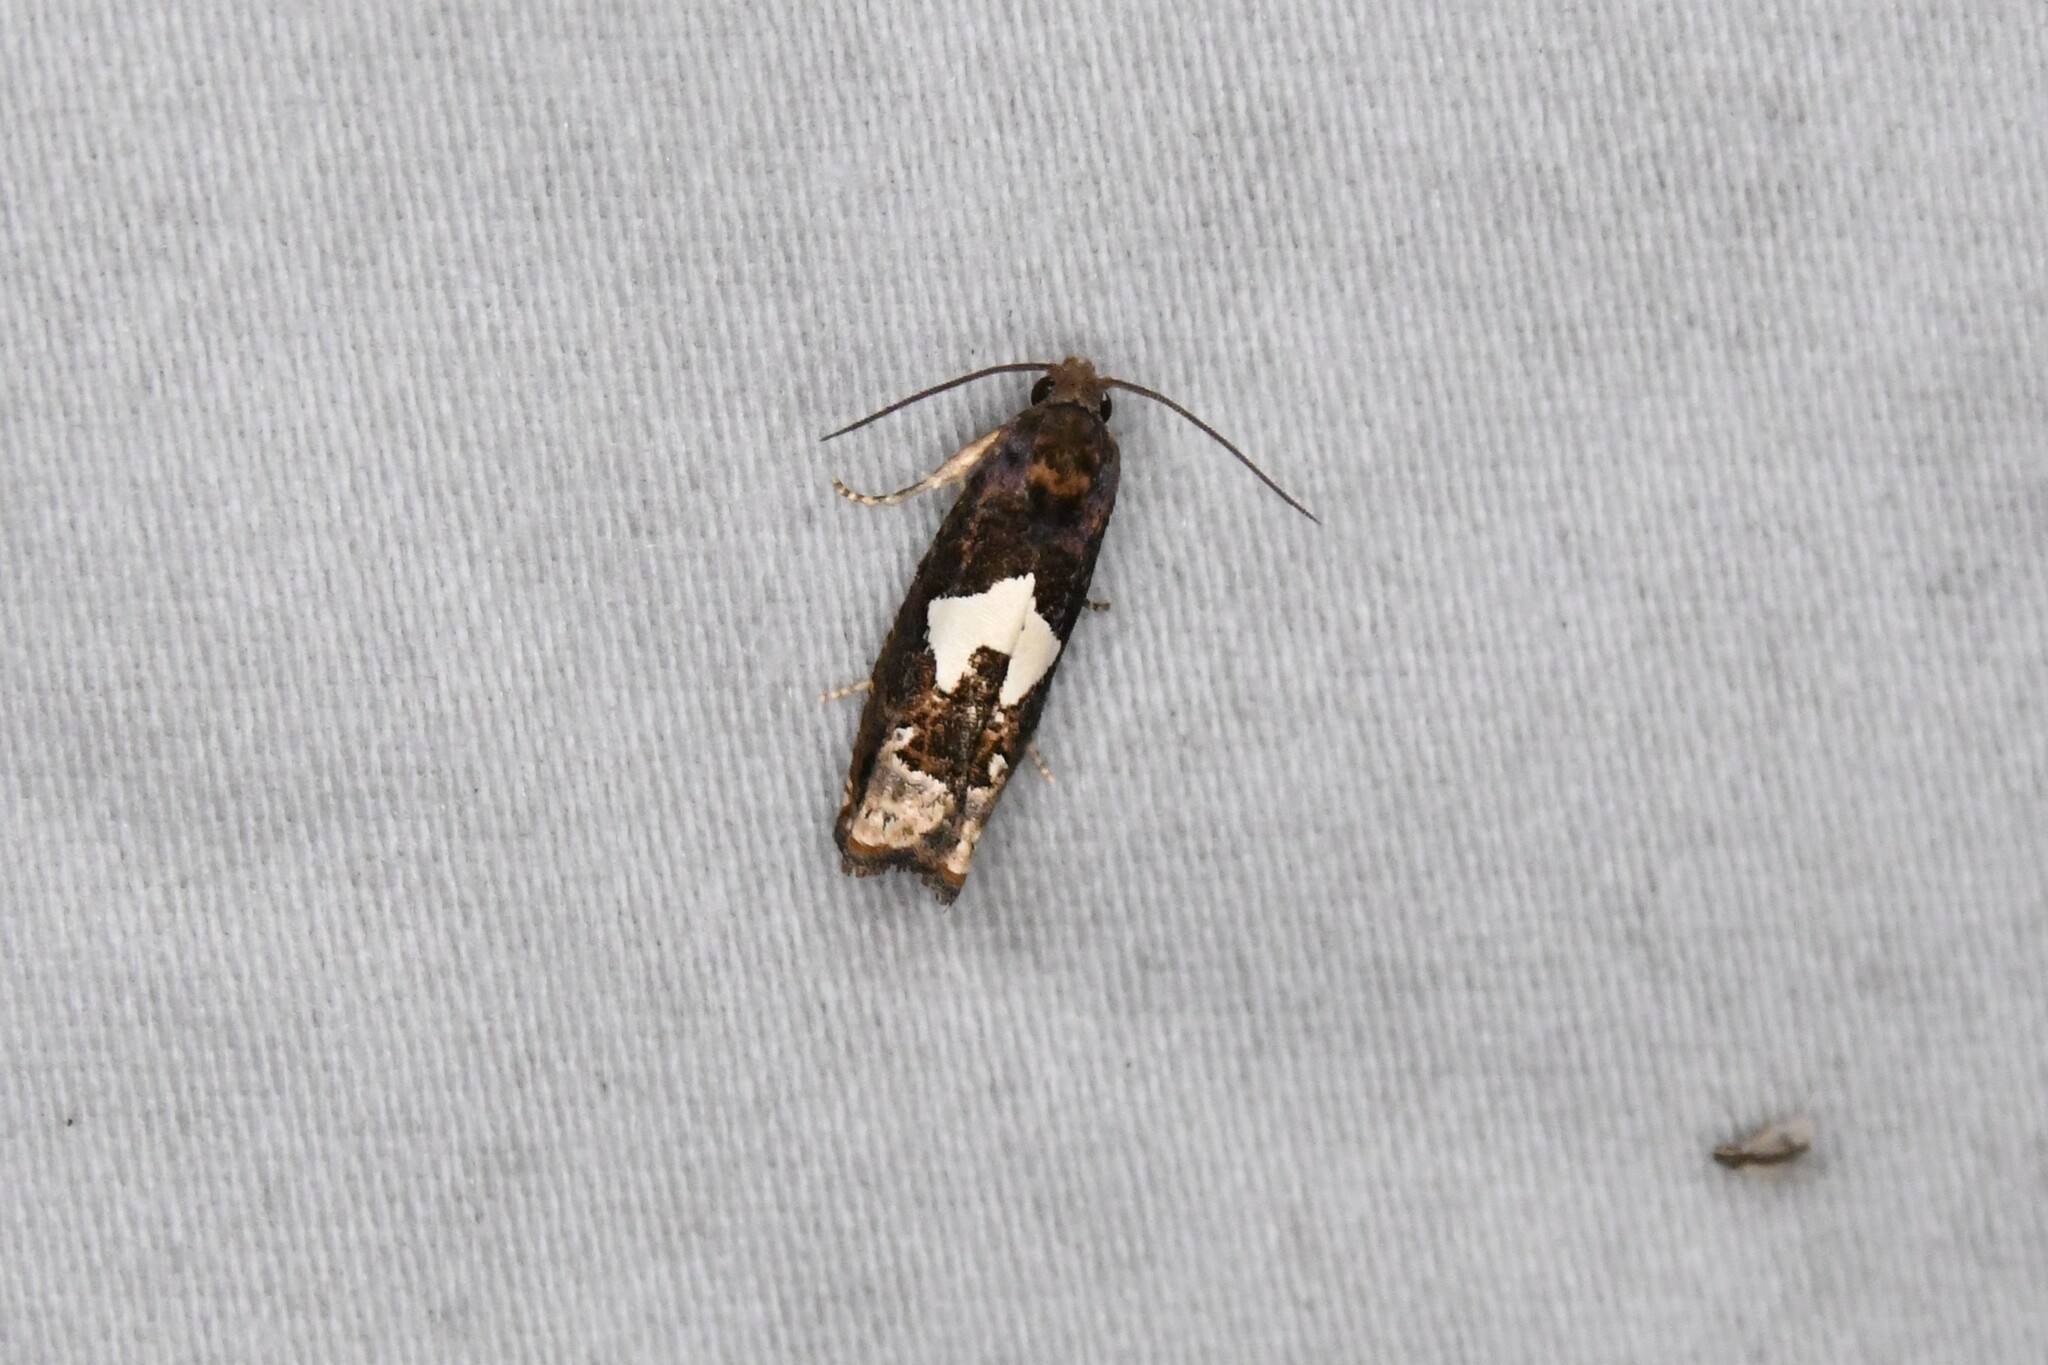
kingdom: Animalia
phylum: Arthropoda
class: Insecta
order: Lepidoptera
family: Tortricidae
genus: Epiblema
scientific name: Epiblema otiosana
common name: Bidens borer moth
